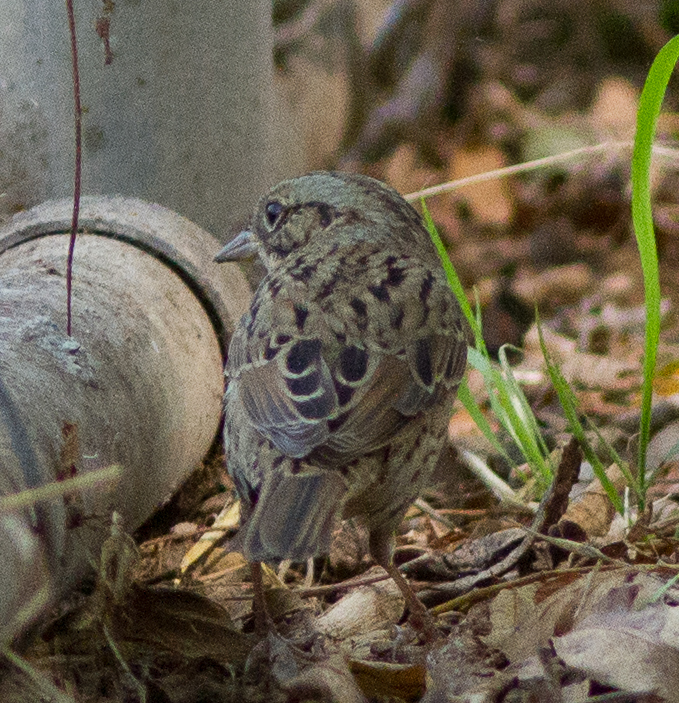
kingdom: Animalia
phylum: Chordata
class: Aves
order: Passeriformes
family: Passerellidae
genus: Melospiza
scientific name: Melospiza lincolnii
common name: Lincoln's sparrow
